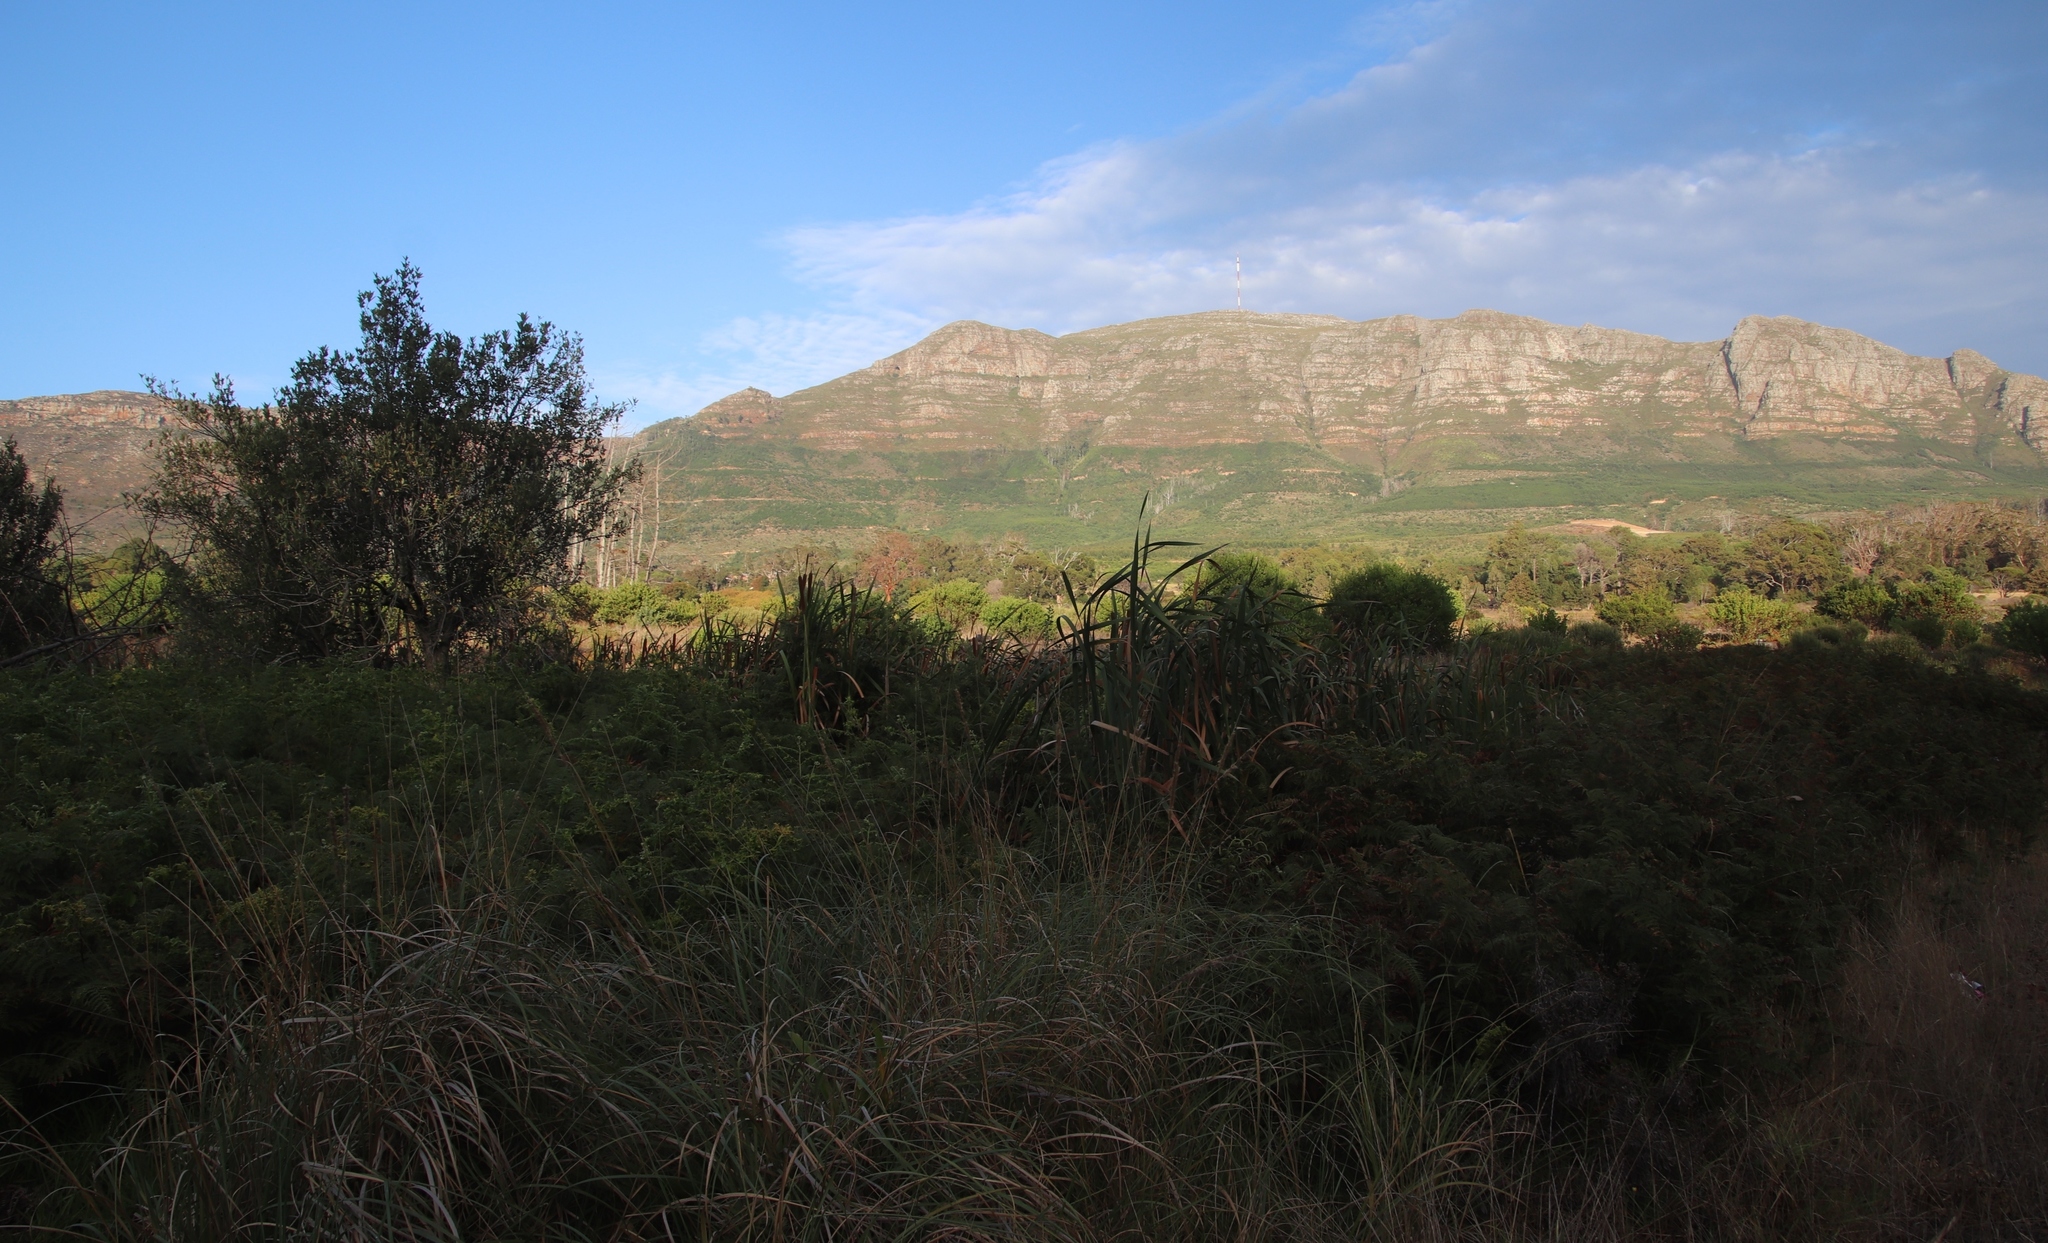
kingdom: Plantae
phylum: Tracheophyta
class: Liliopsida
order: Poales
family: Poaceae
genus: Cenchrus
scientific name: Cenchrus caudatus
